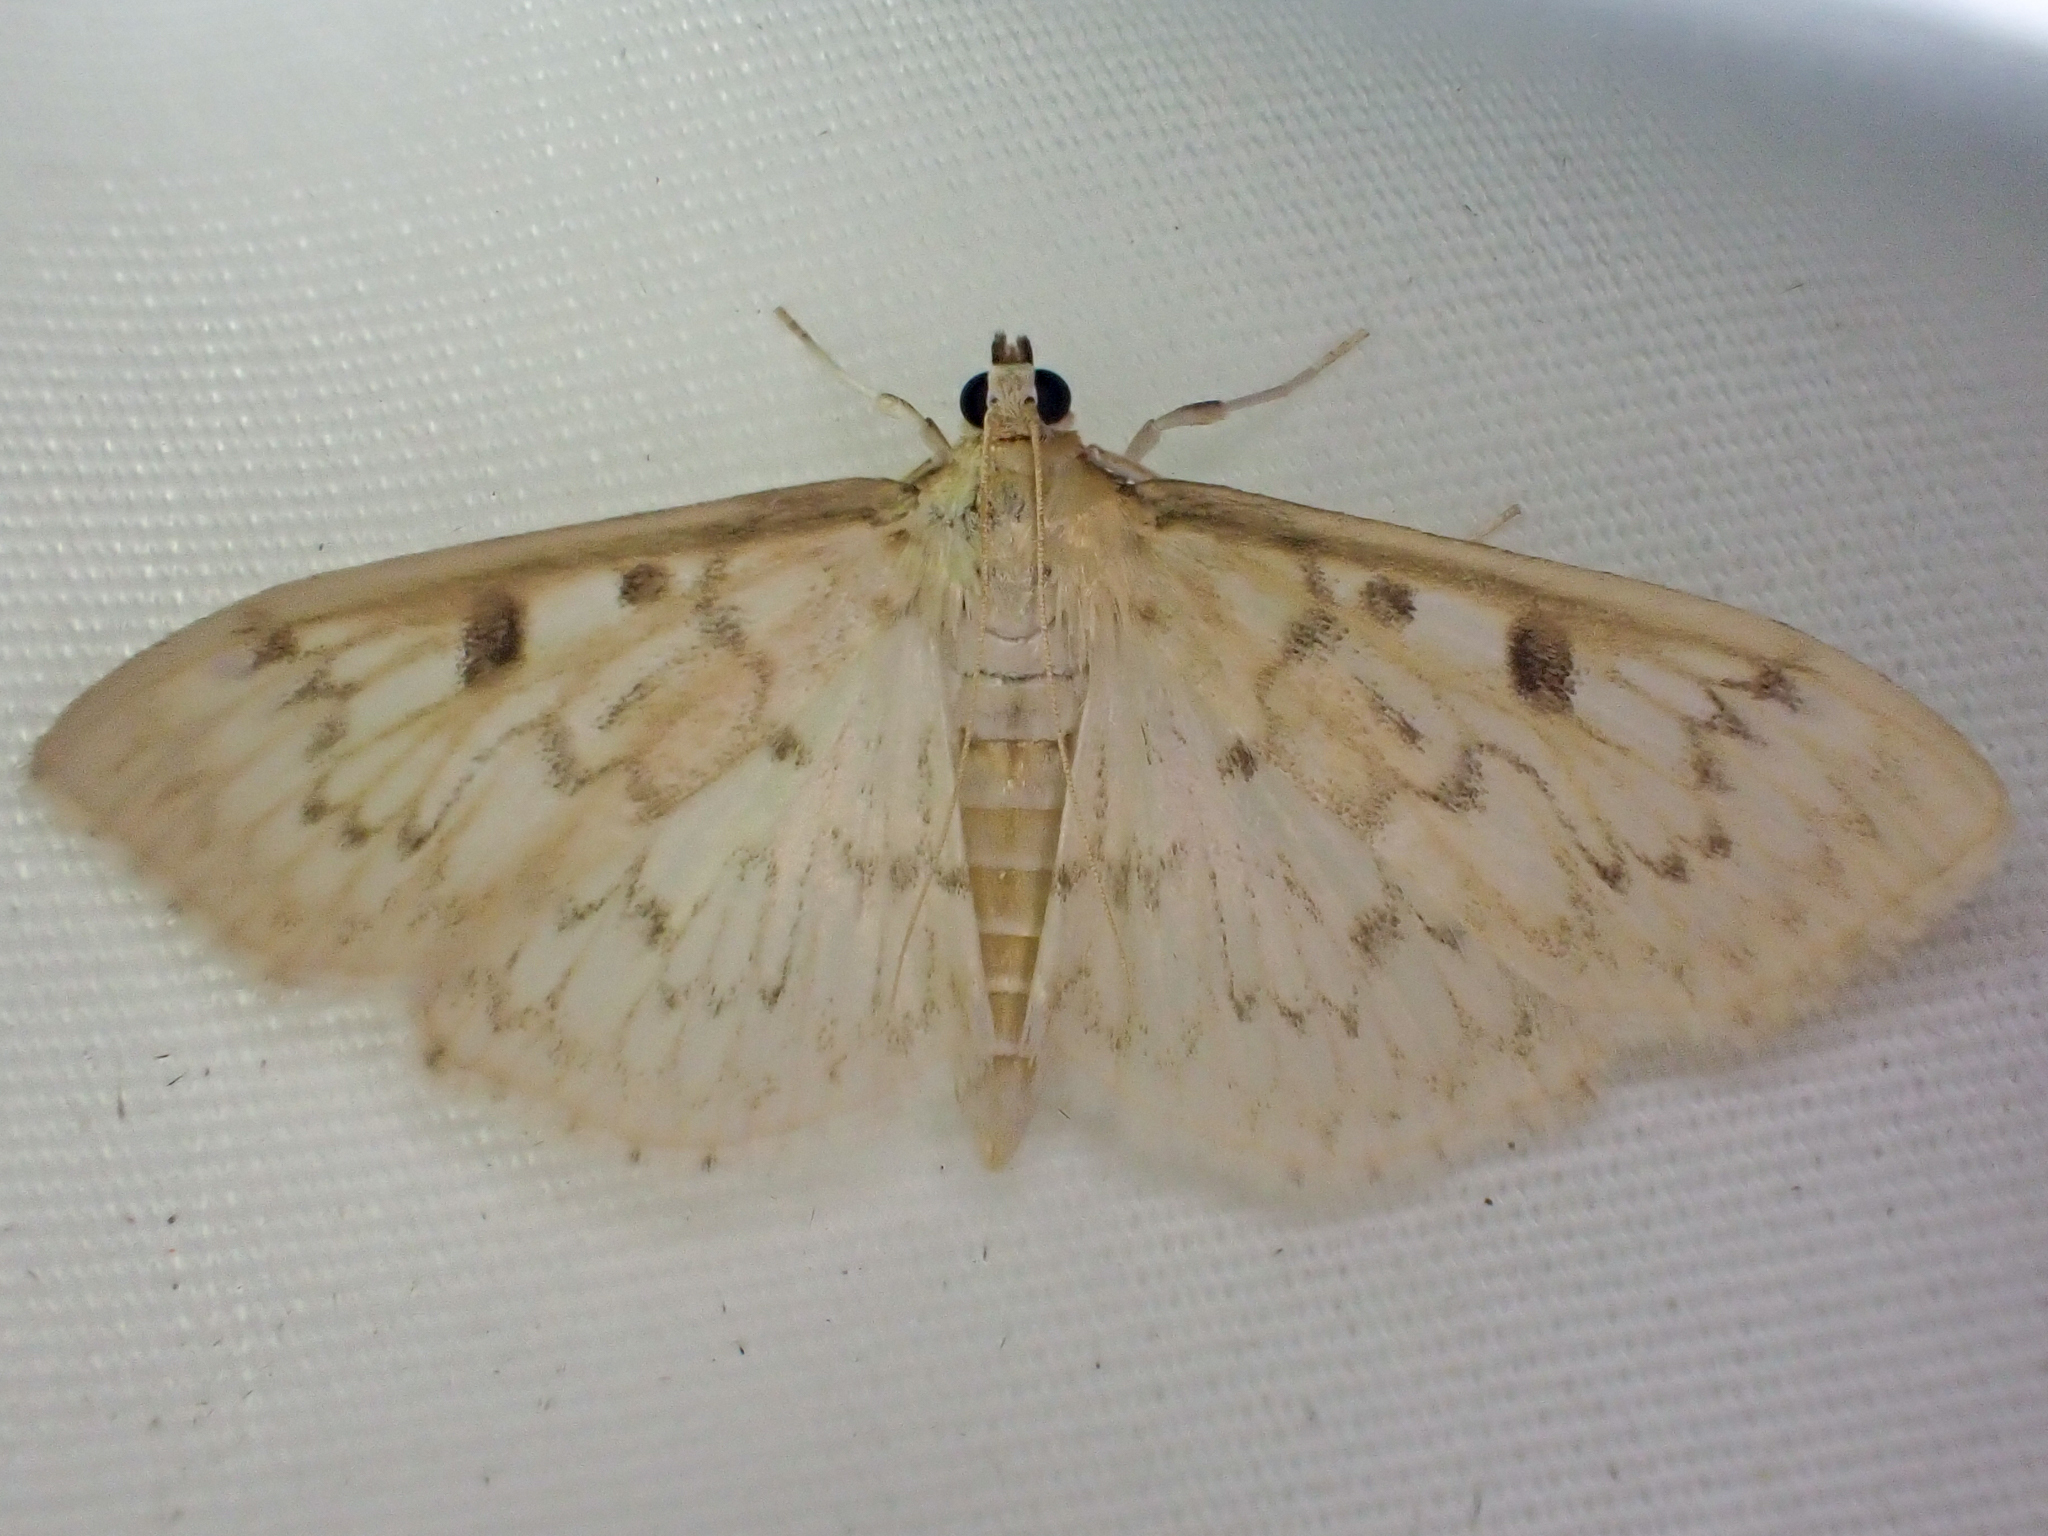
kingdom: Animalia
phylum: Arthropoda
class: Insecta
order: Lepidoptera
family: Crambidae
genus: Herpetogramma
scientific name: Herpetogramma aquilonalis
